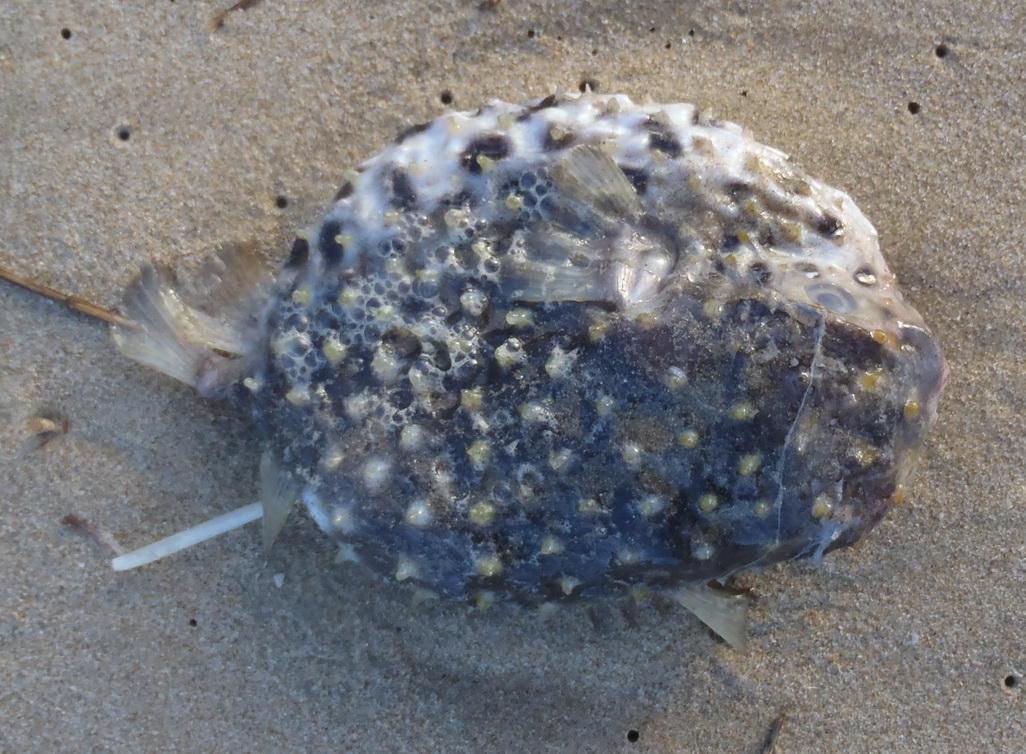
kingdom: Animalia
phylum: Chordata
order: Tetraodontiformes
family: Diodontidae
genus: Cyclichthys
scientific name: Cyclichthys orbicularis
